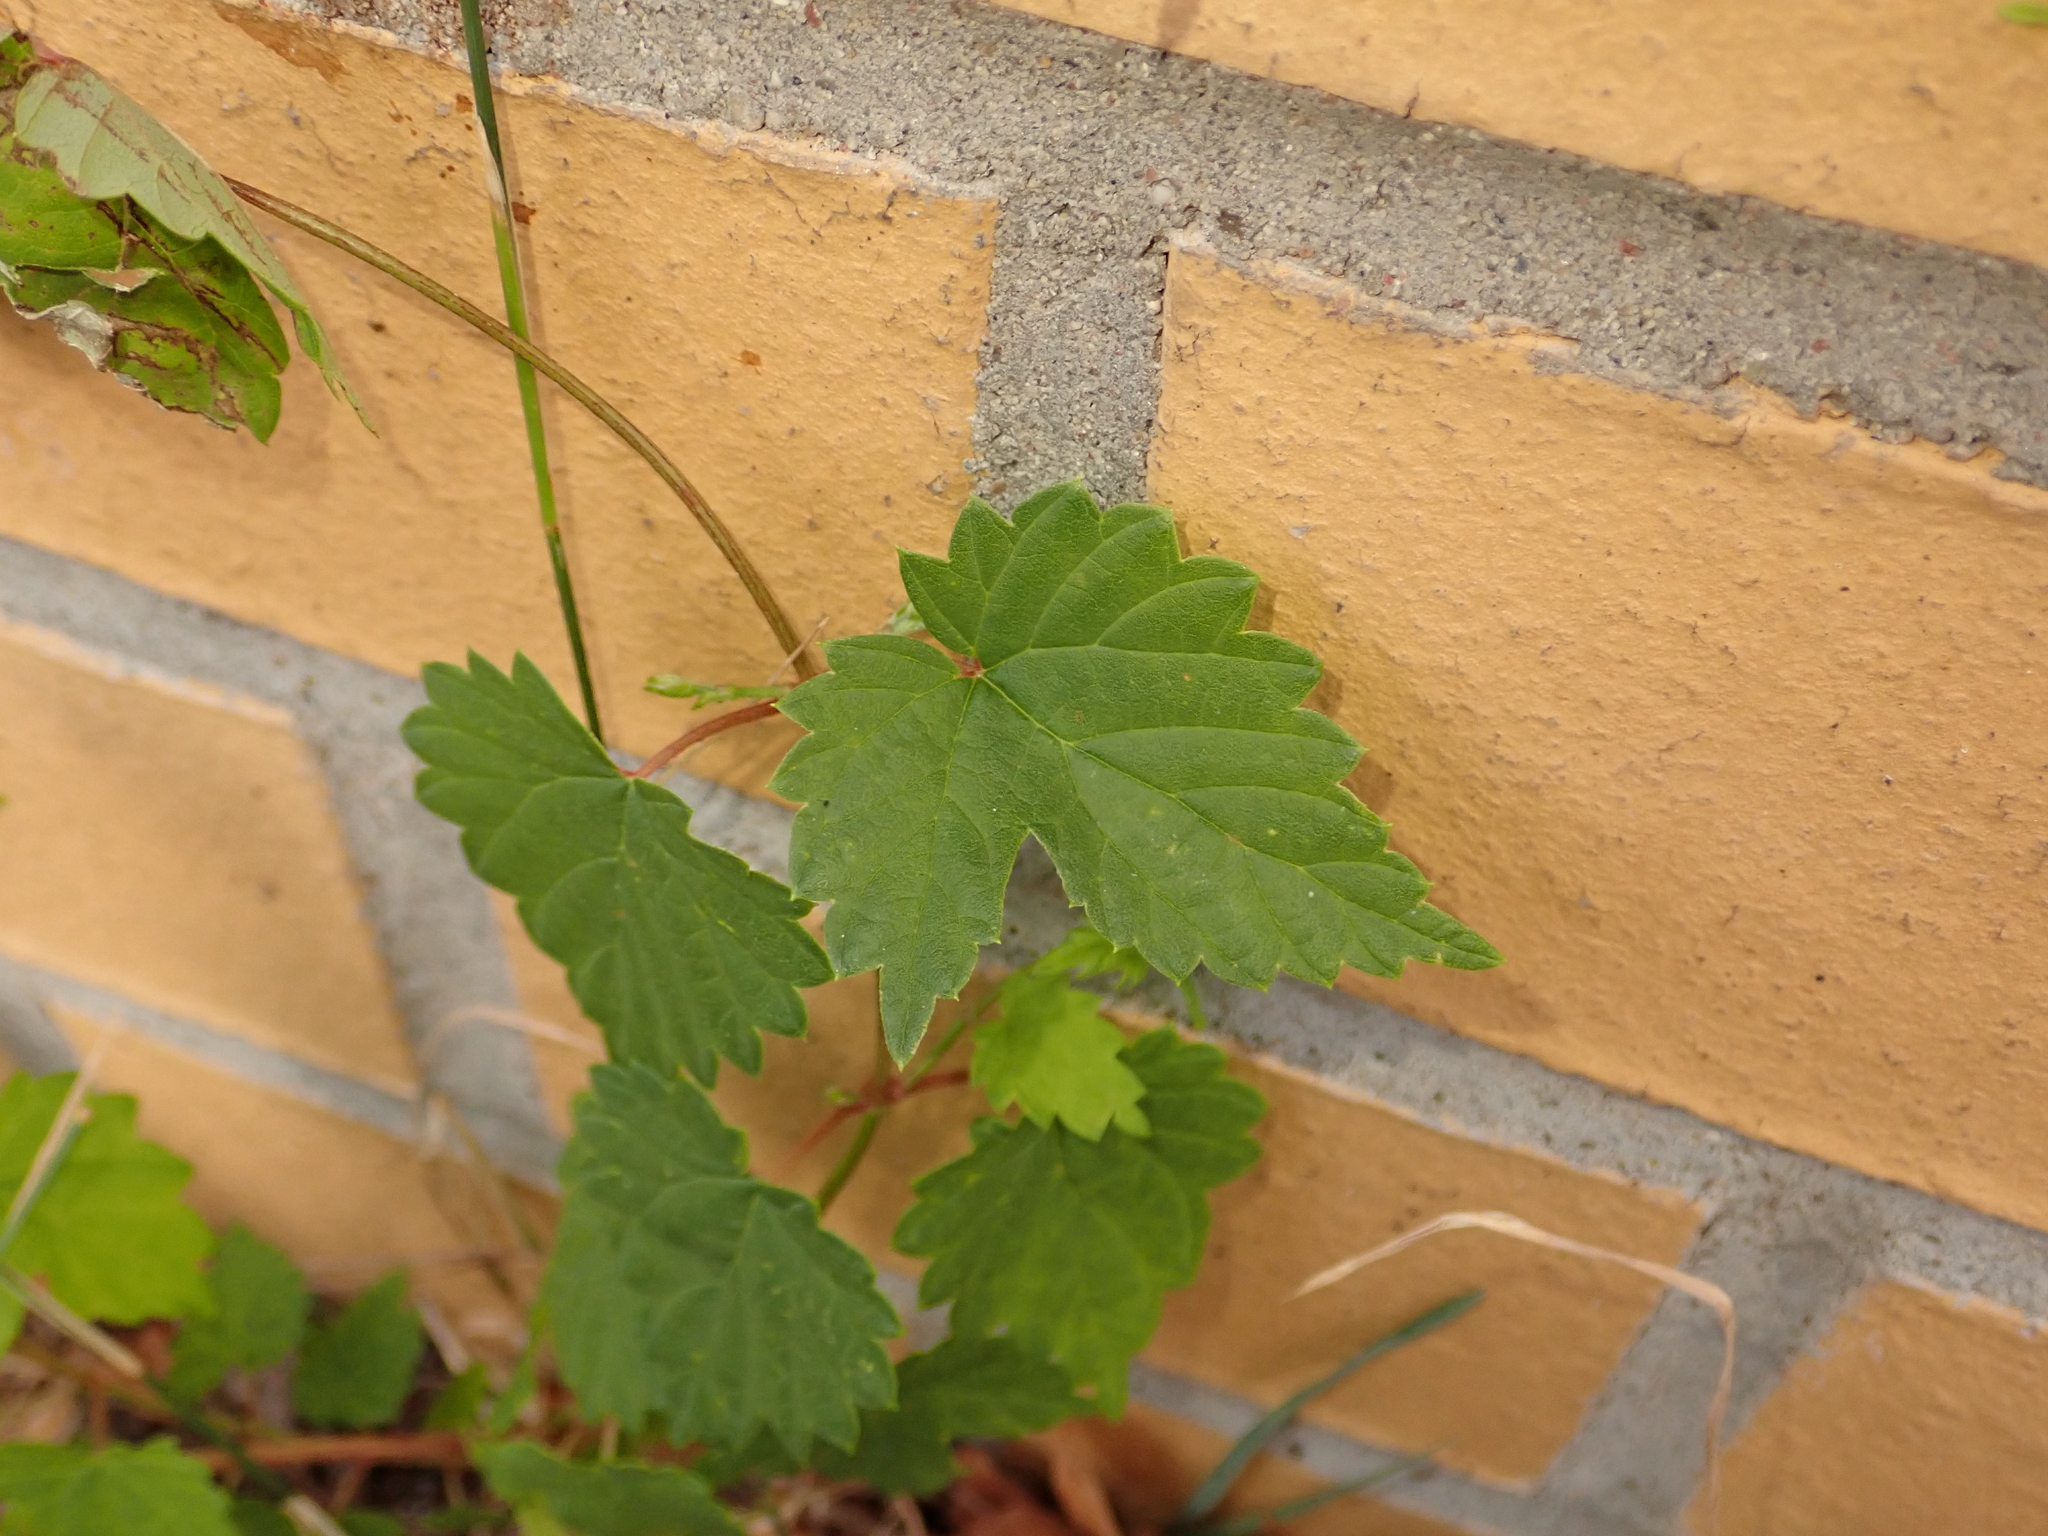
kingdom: Plantae
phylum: Tracheophyta
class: Magnoliopsida
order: Rosales
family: Cannabaceae
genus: Humulus
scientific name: Humulus lupulus
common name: Hop
